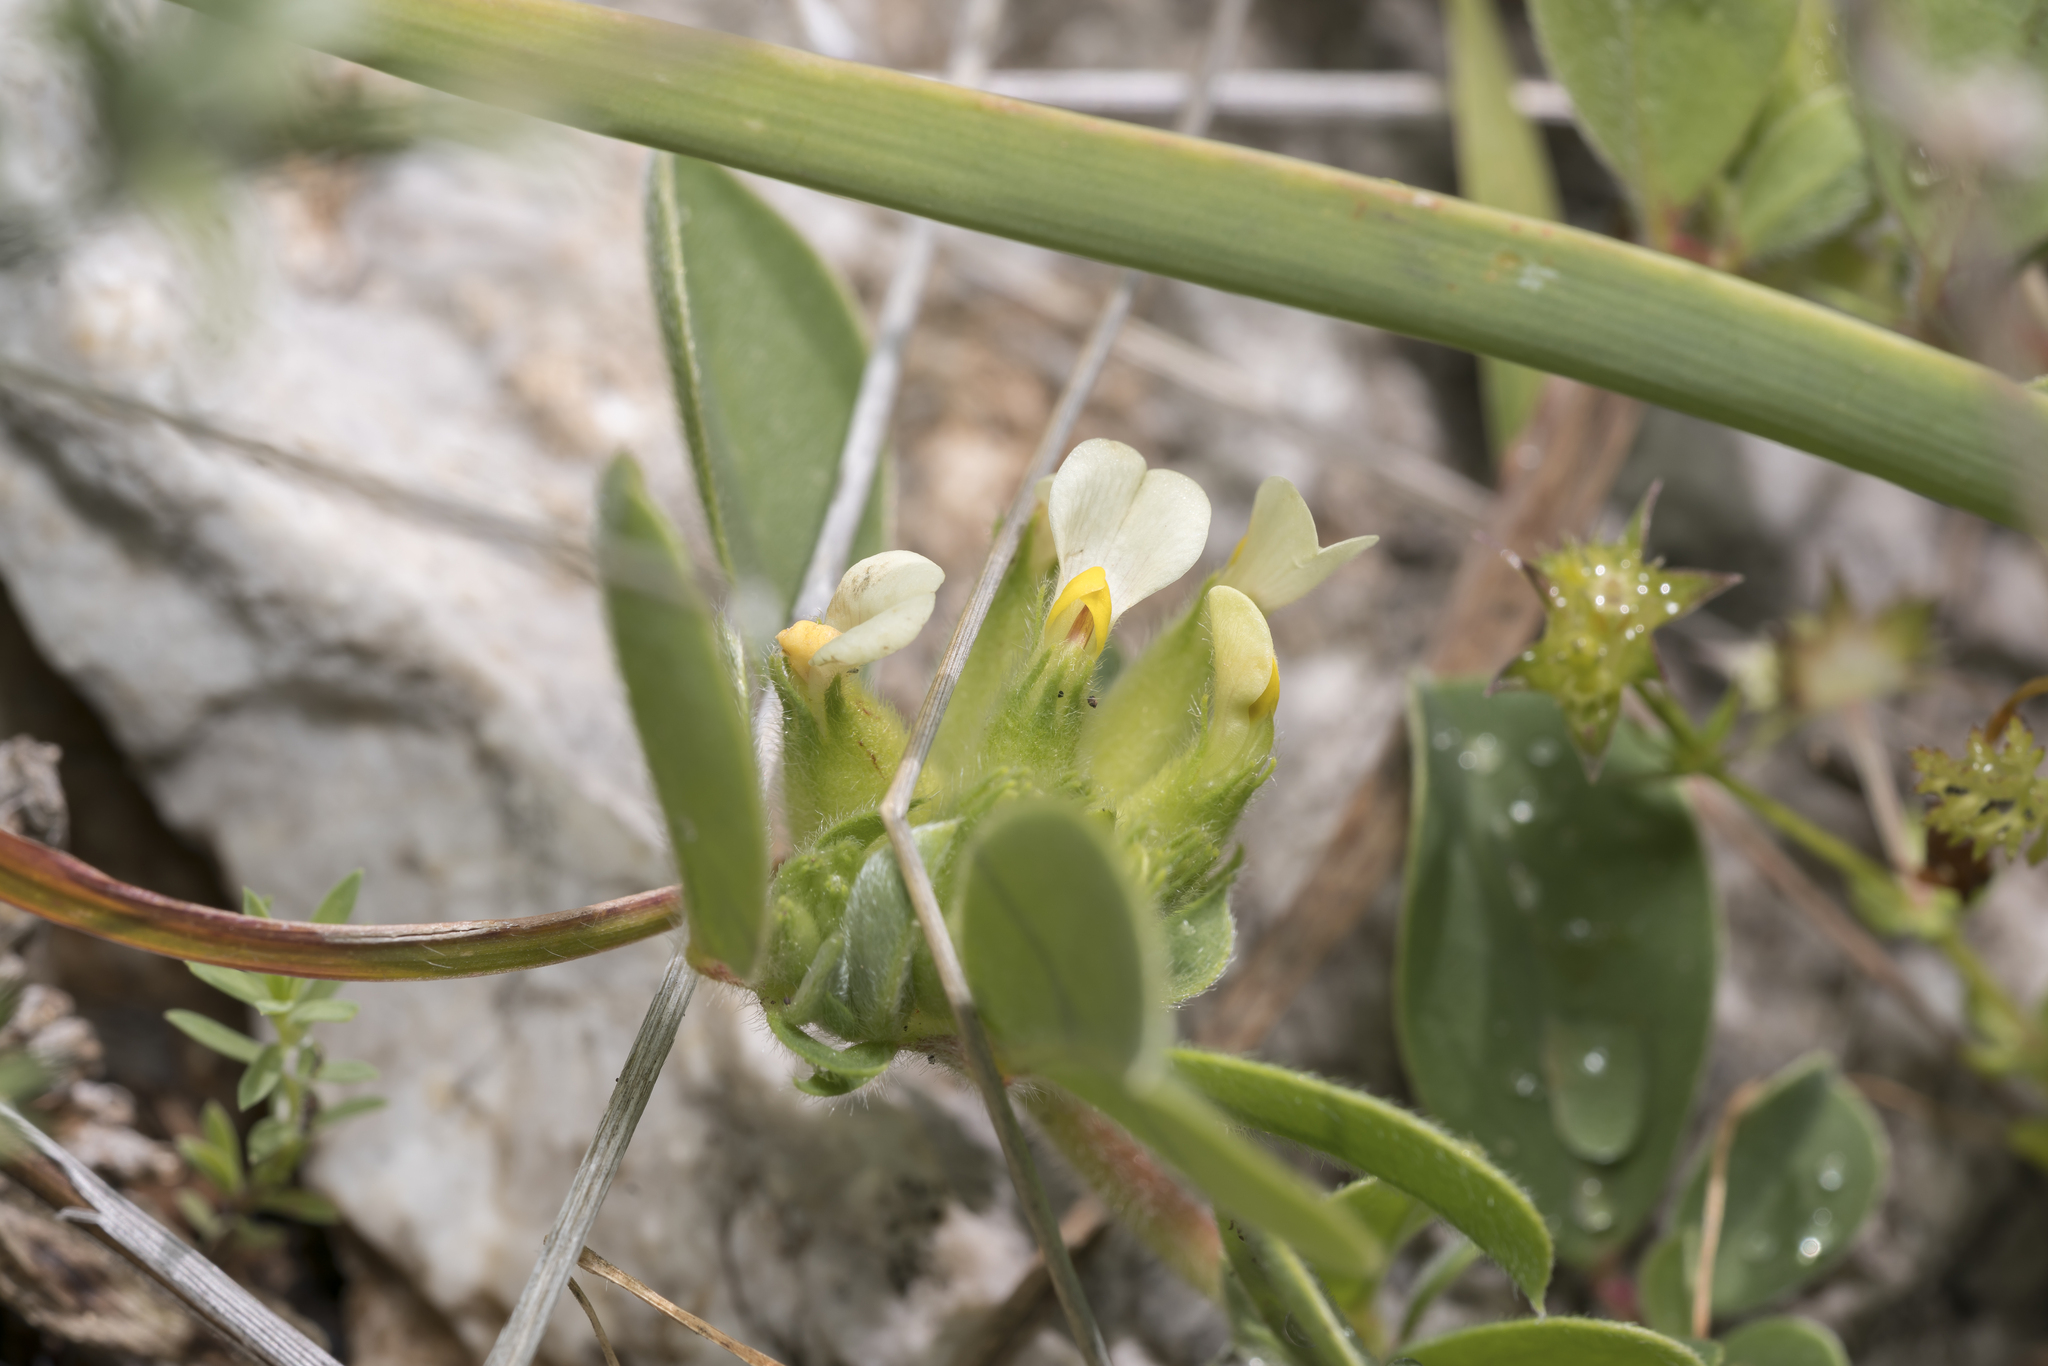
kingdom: Plantae
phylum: Tracheophyta
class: Magnoliopsida
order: Fabales
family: Fabaceae
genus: Tripodion
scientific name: Tripodion tetraphyllum
